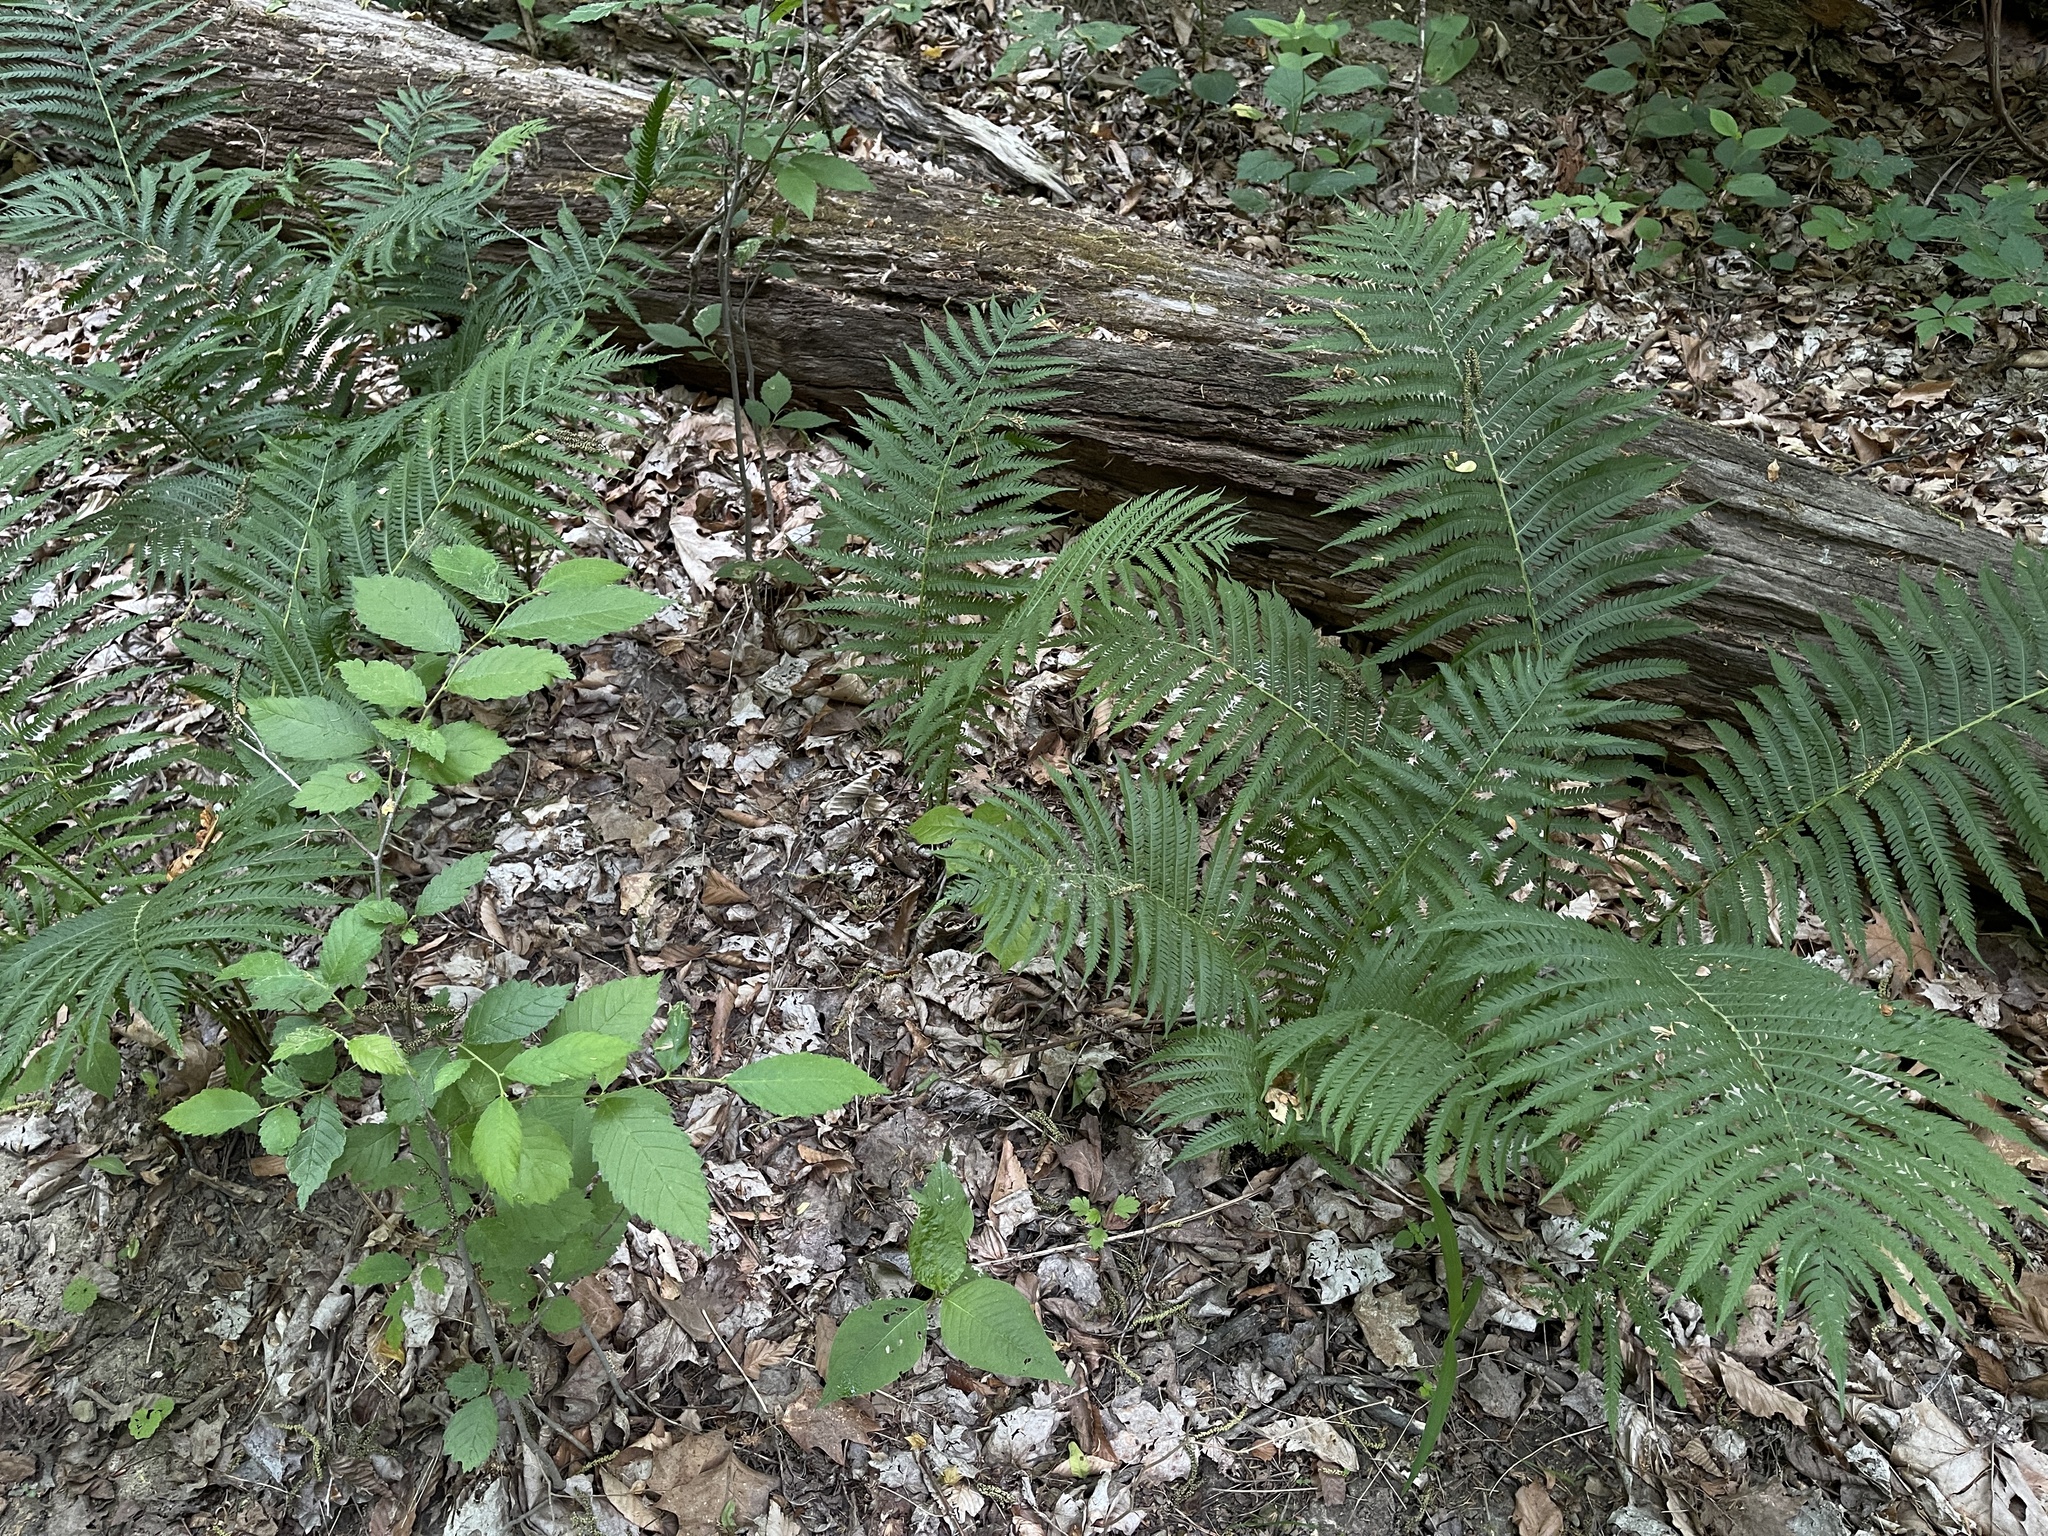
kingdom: Plantae
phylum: Tracheophyta
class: Polypodiopsida
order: Polypodiales
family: Onocleaceae
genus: Matteuccia
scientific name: Matteuccia struthiopteris
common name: Ostrich fern
